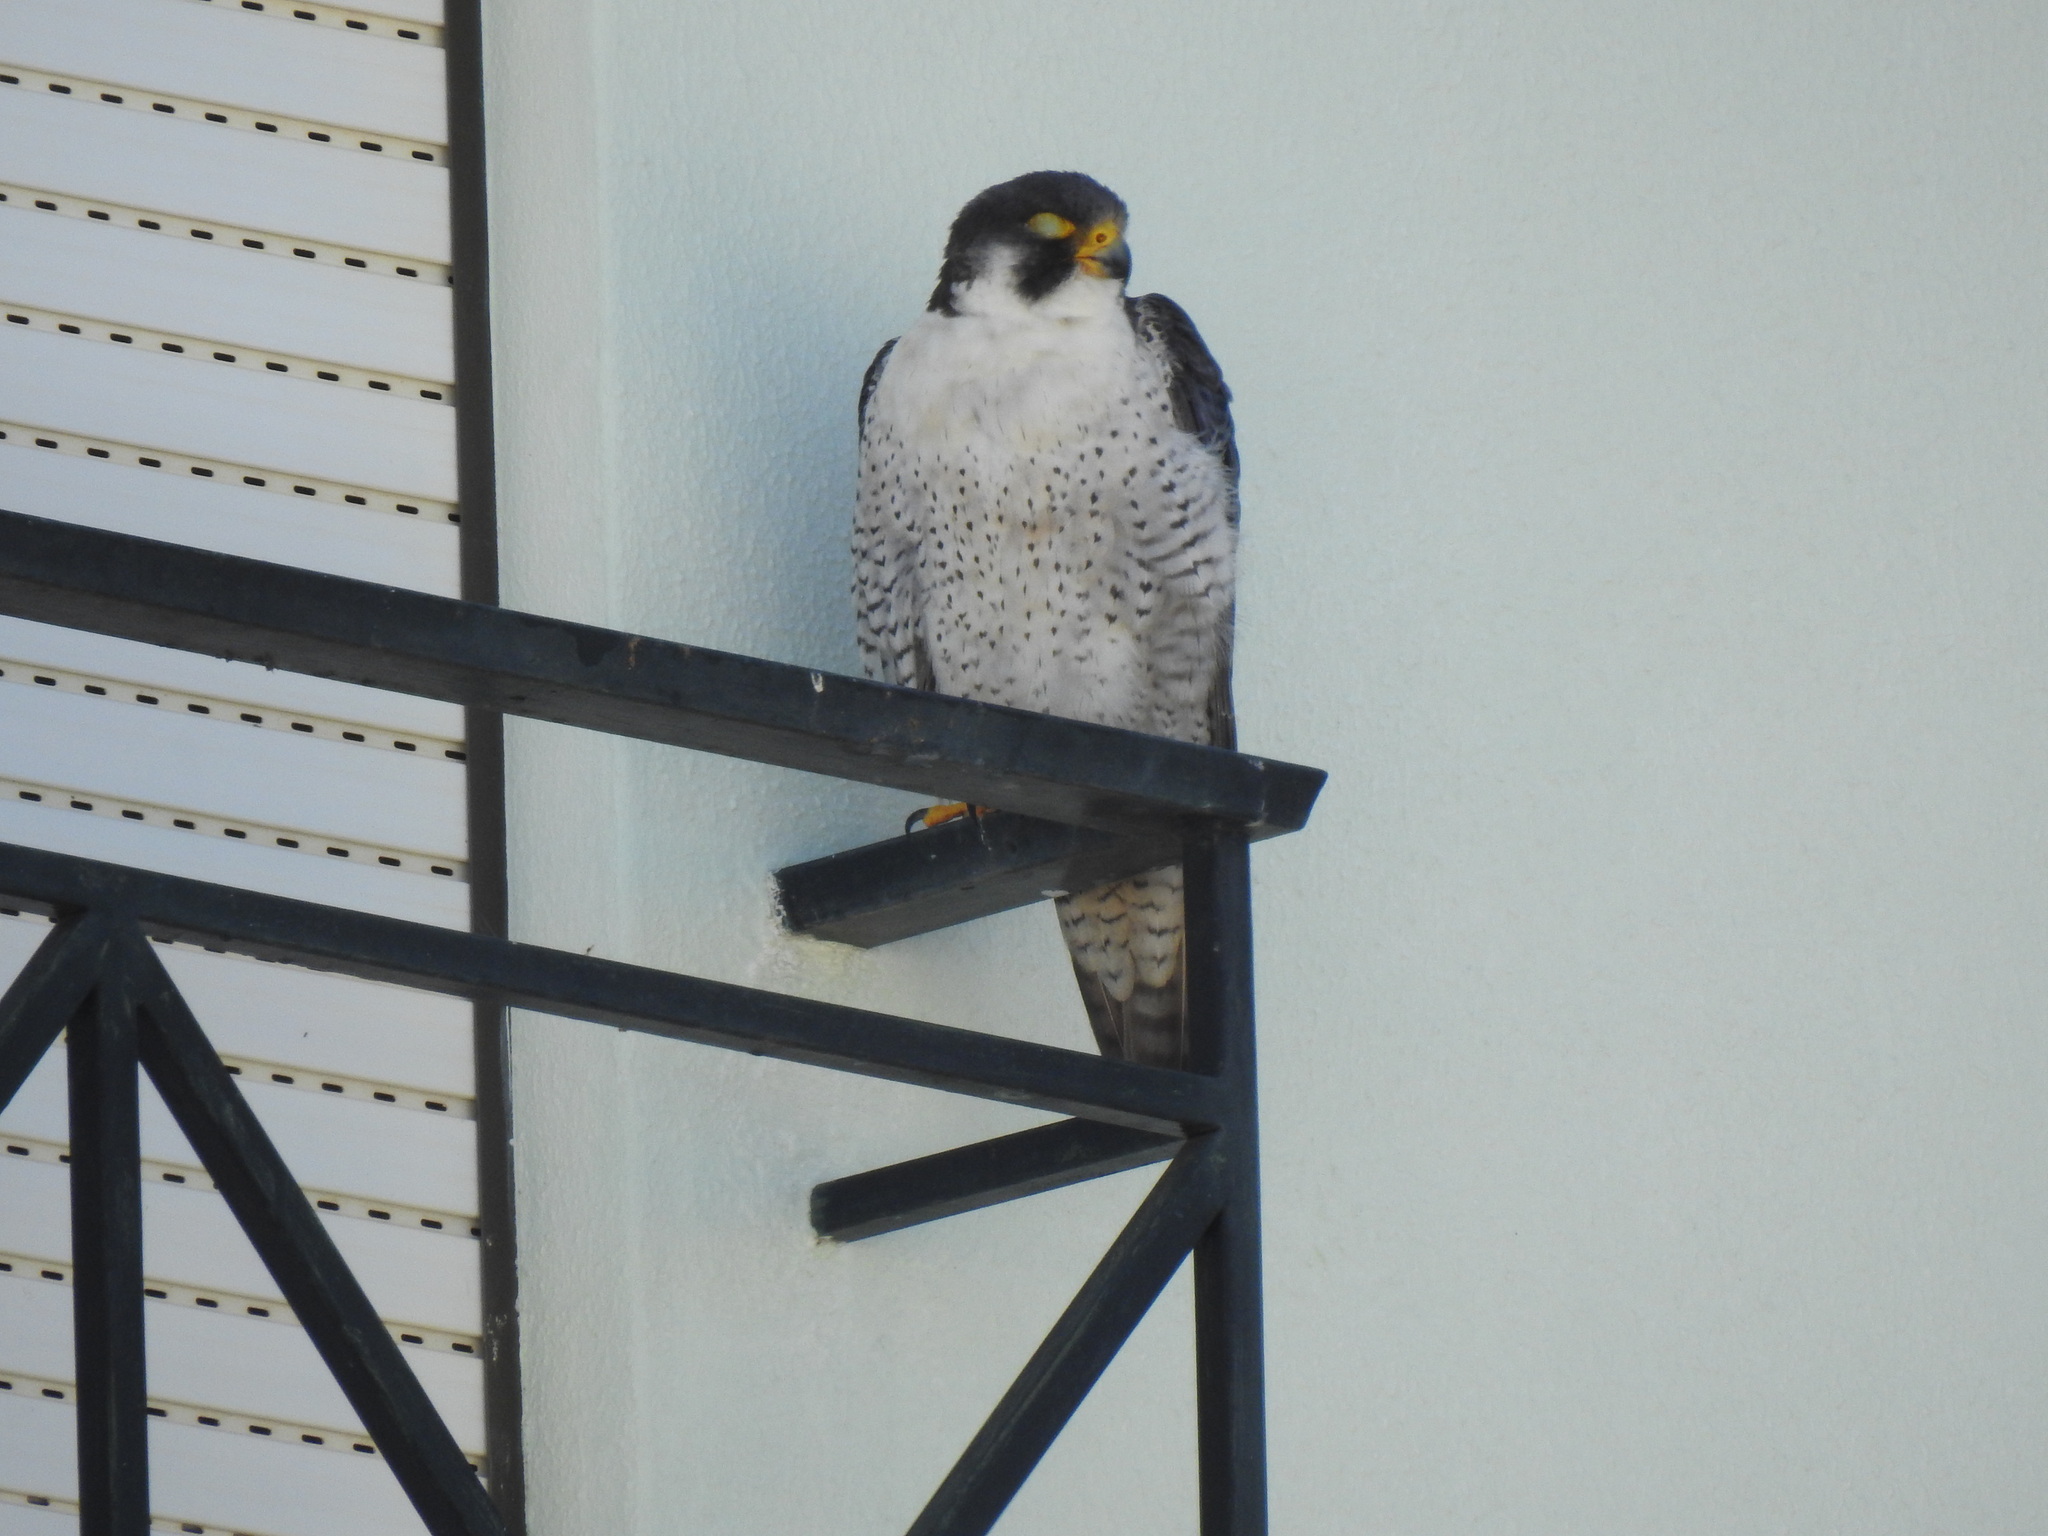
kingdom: Animalia
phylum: Chordata
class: Aves
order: Falconiformes
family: Falconidae
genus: Falco
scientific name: Falco peregrinus
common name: Peregrine falcon
